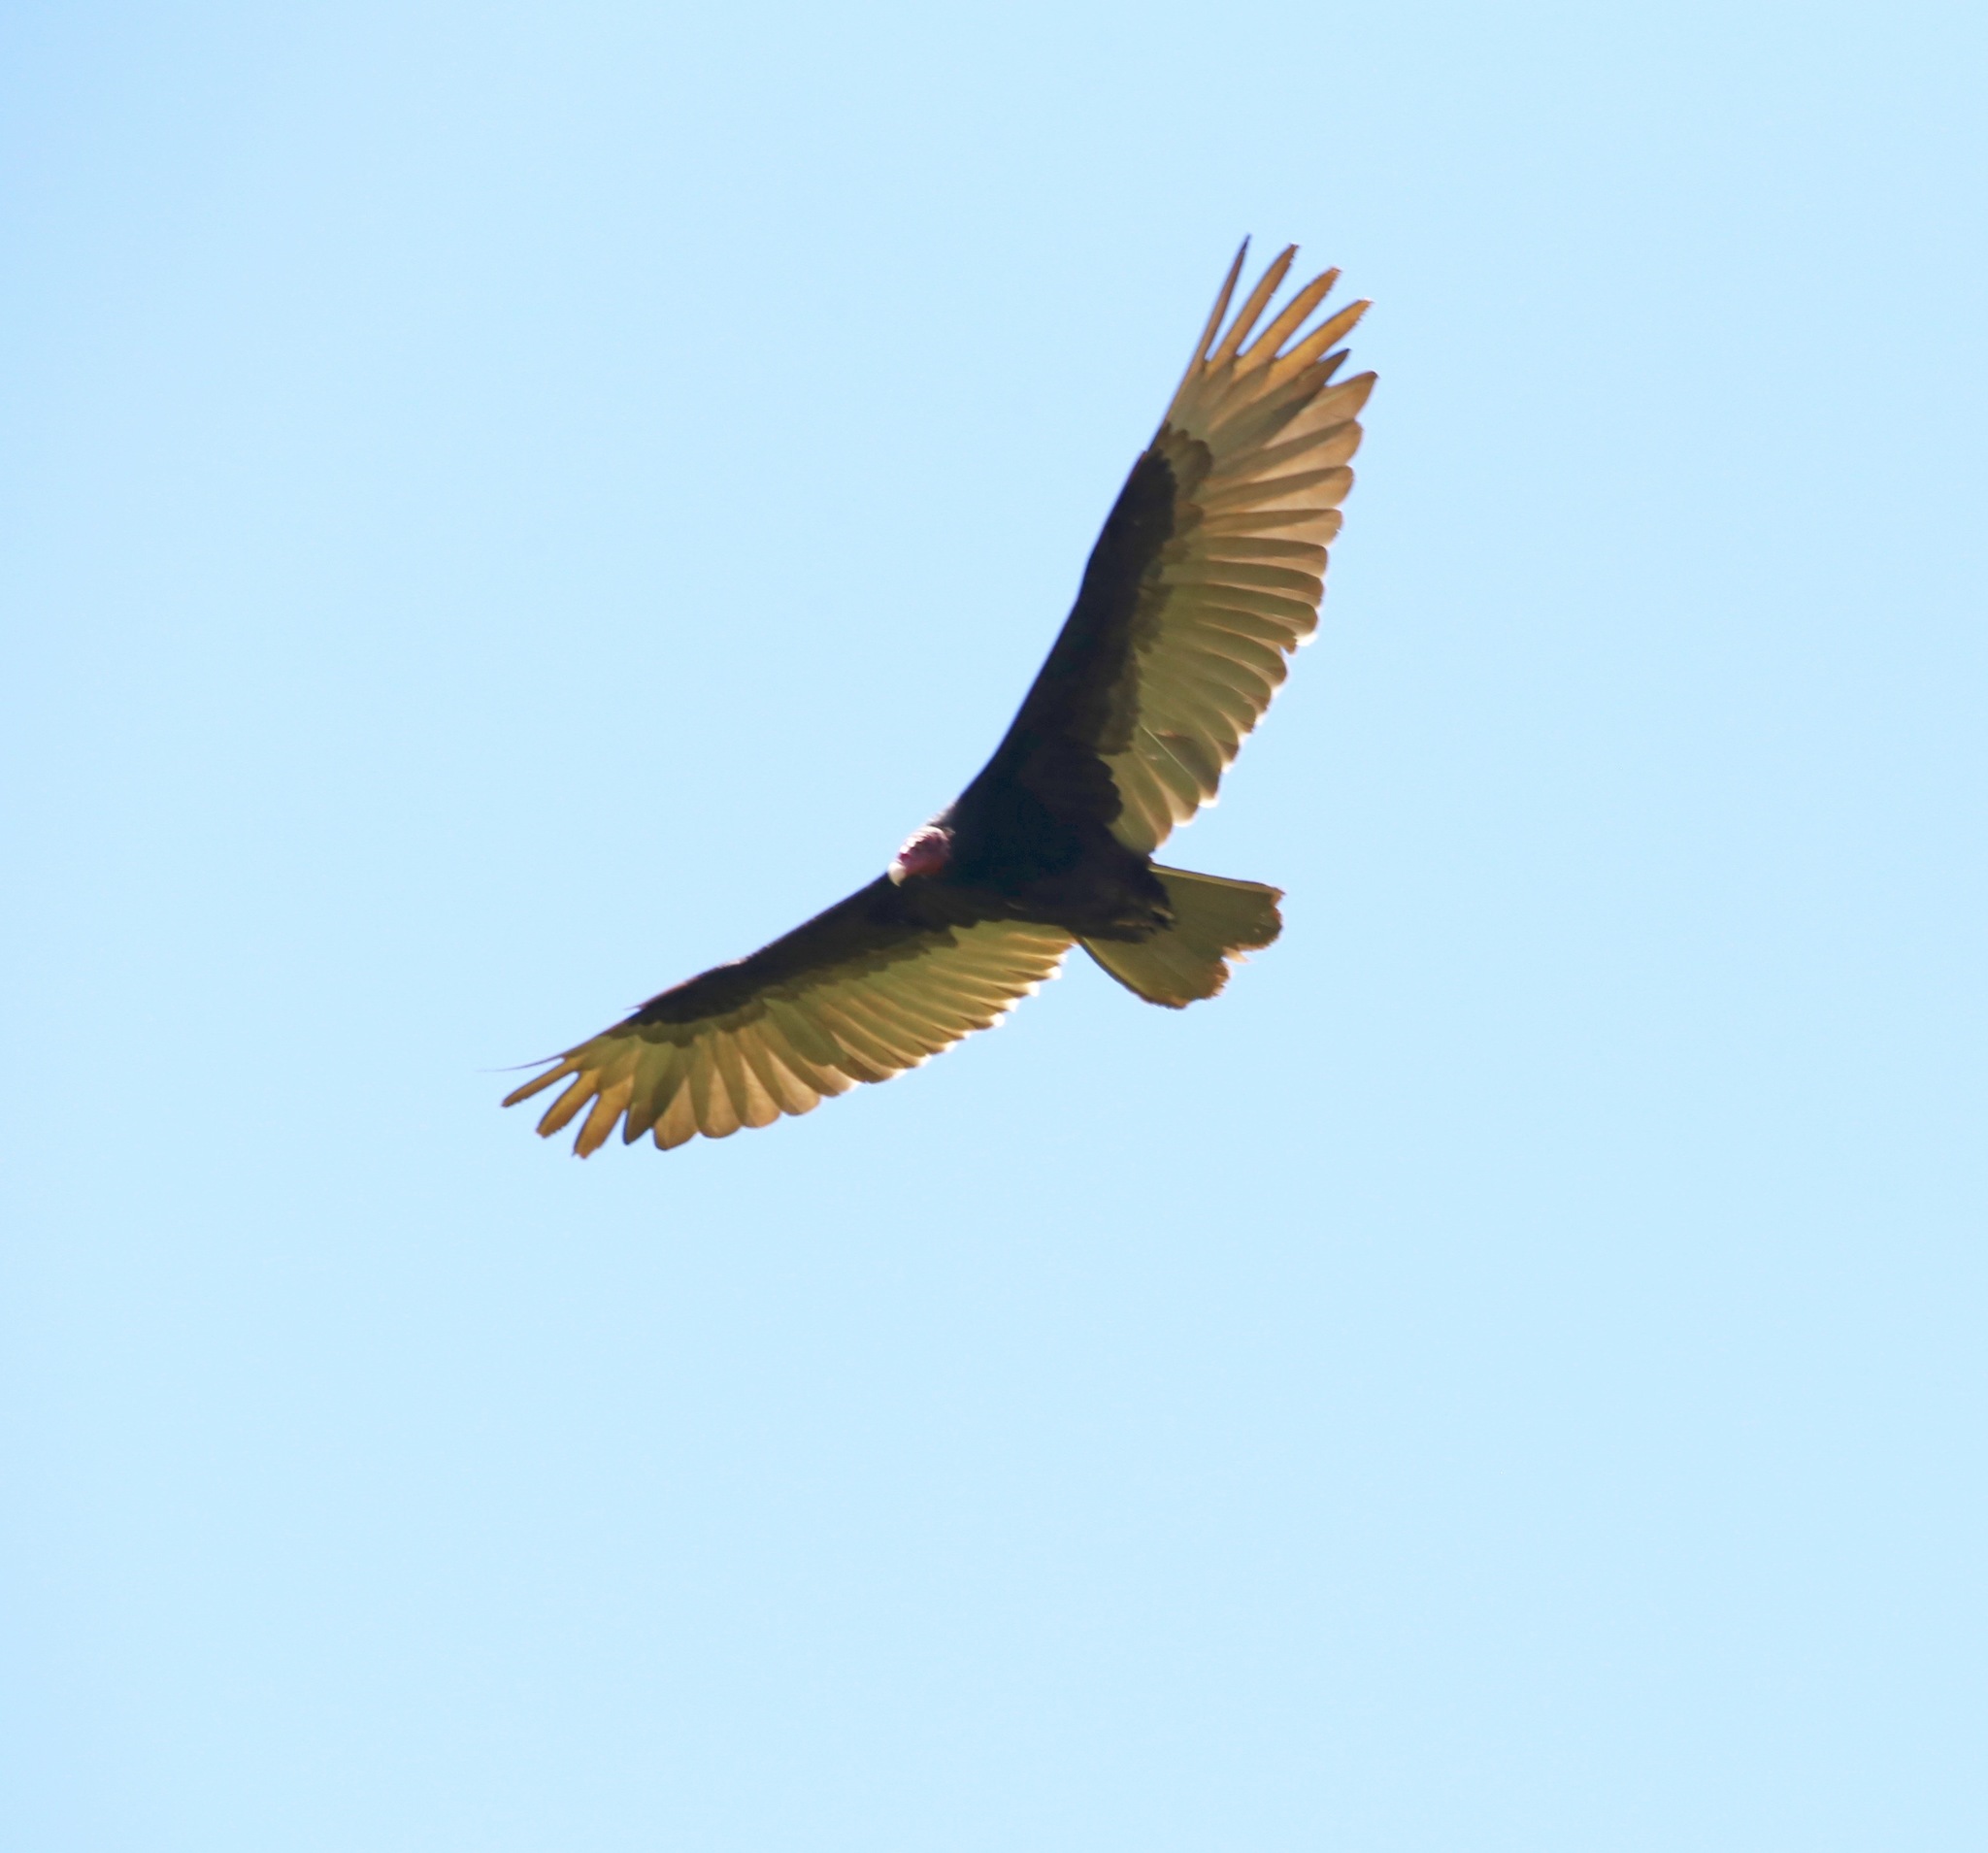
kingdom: Animalia
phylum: Chordata
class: Aves
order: Accipitriformes
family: Cathartidae
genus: Cathartes
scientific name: Cathartes aura
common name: Turkey vulture
